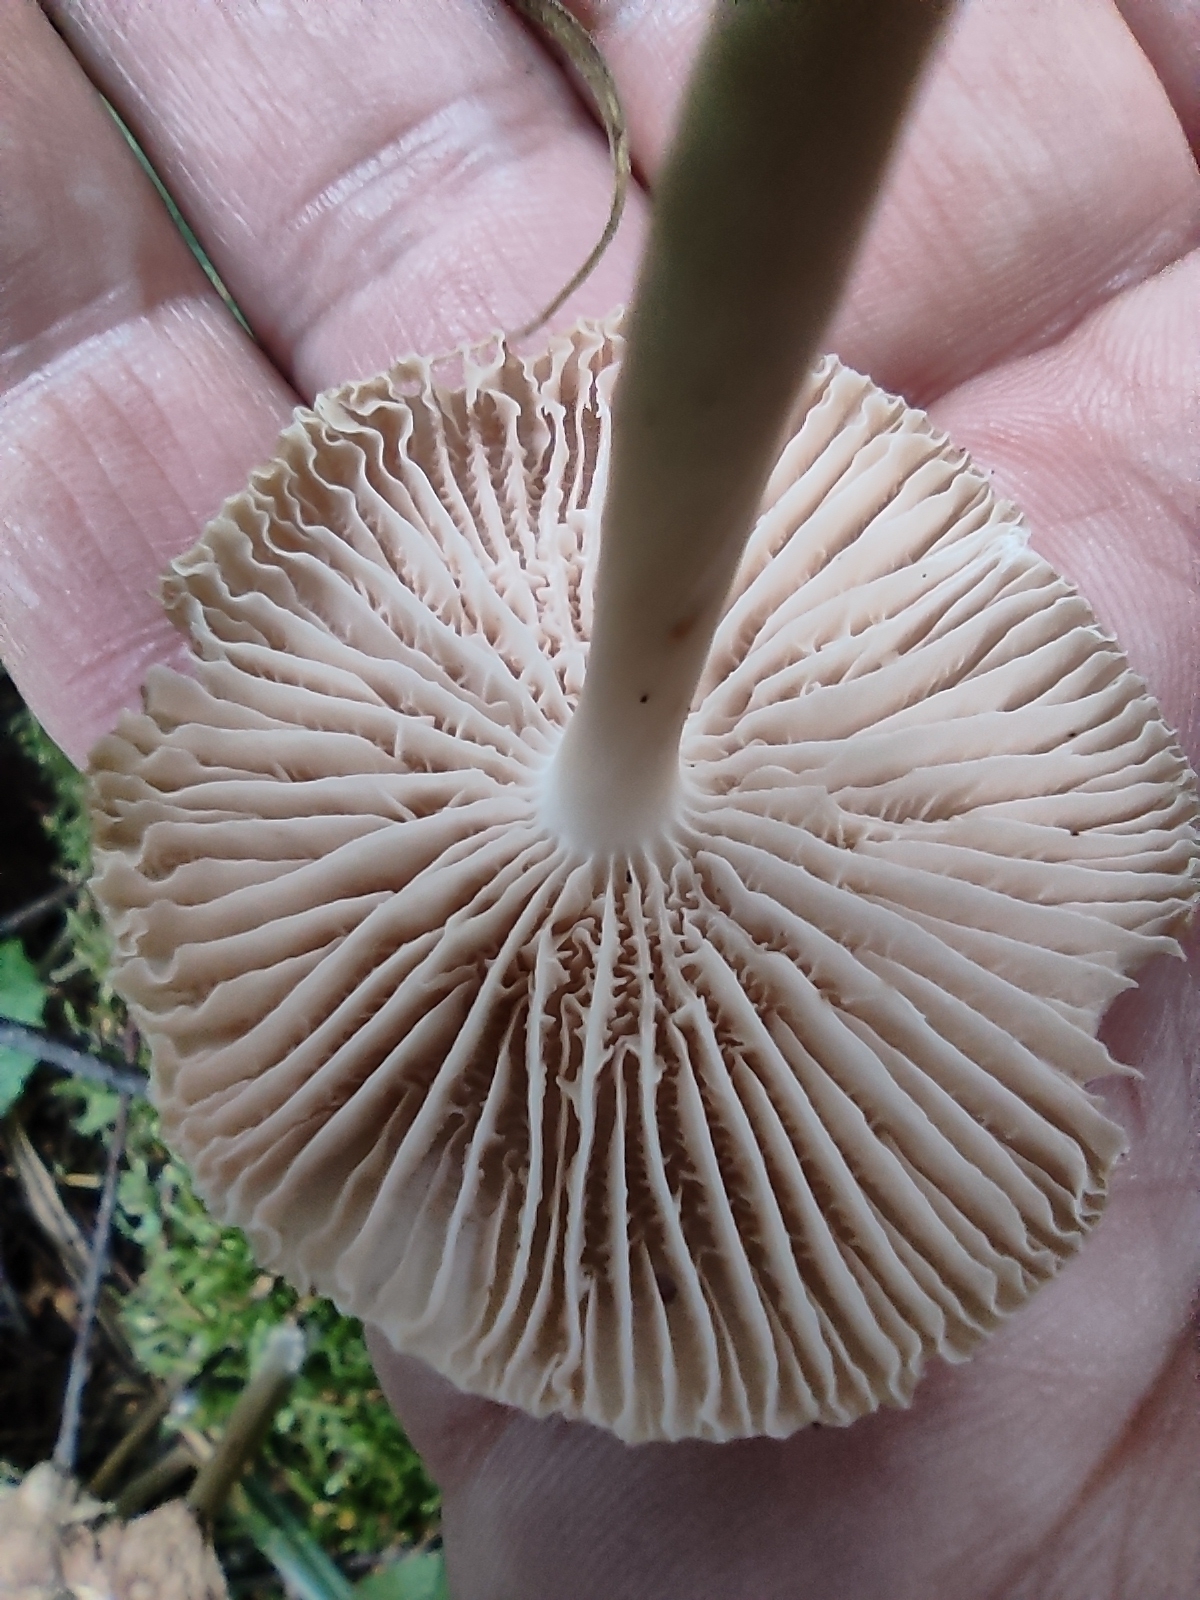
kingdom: Fungi
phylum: Basidiomycota
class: Agaricomycetes
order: Agaricales
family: Mycenaceae
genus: Mycena
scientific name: Mycena galericulata
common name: Bonnet mycena
